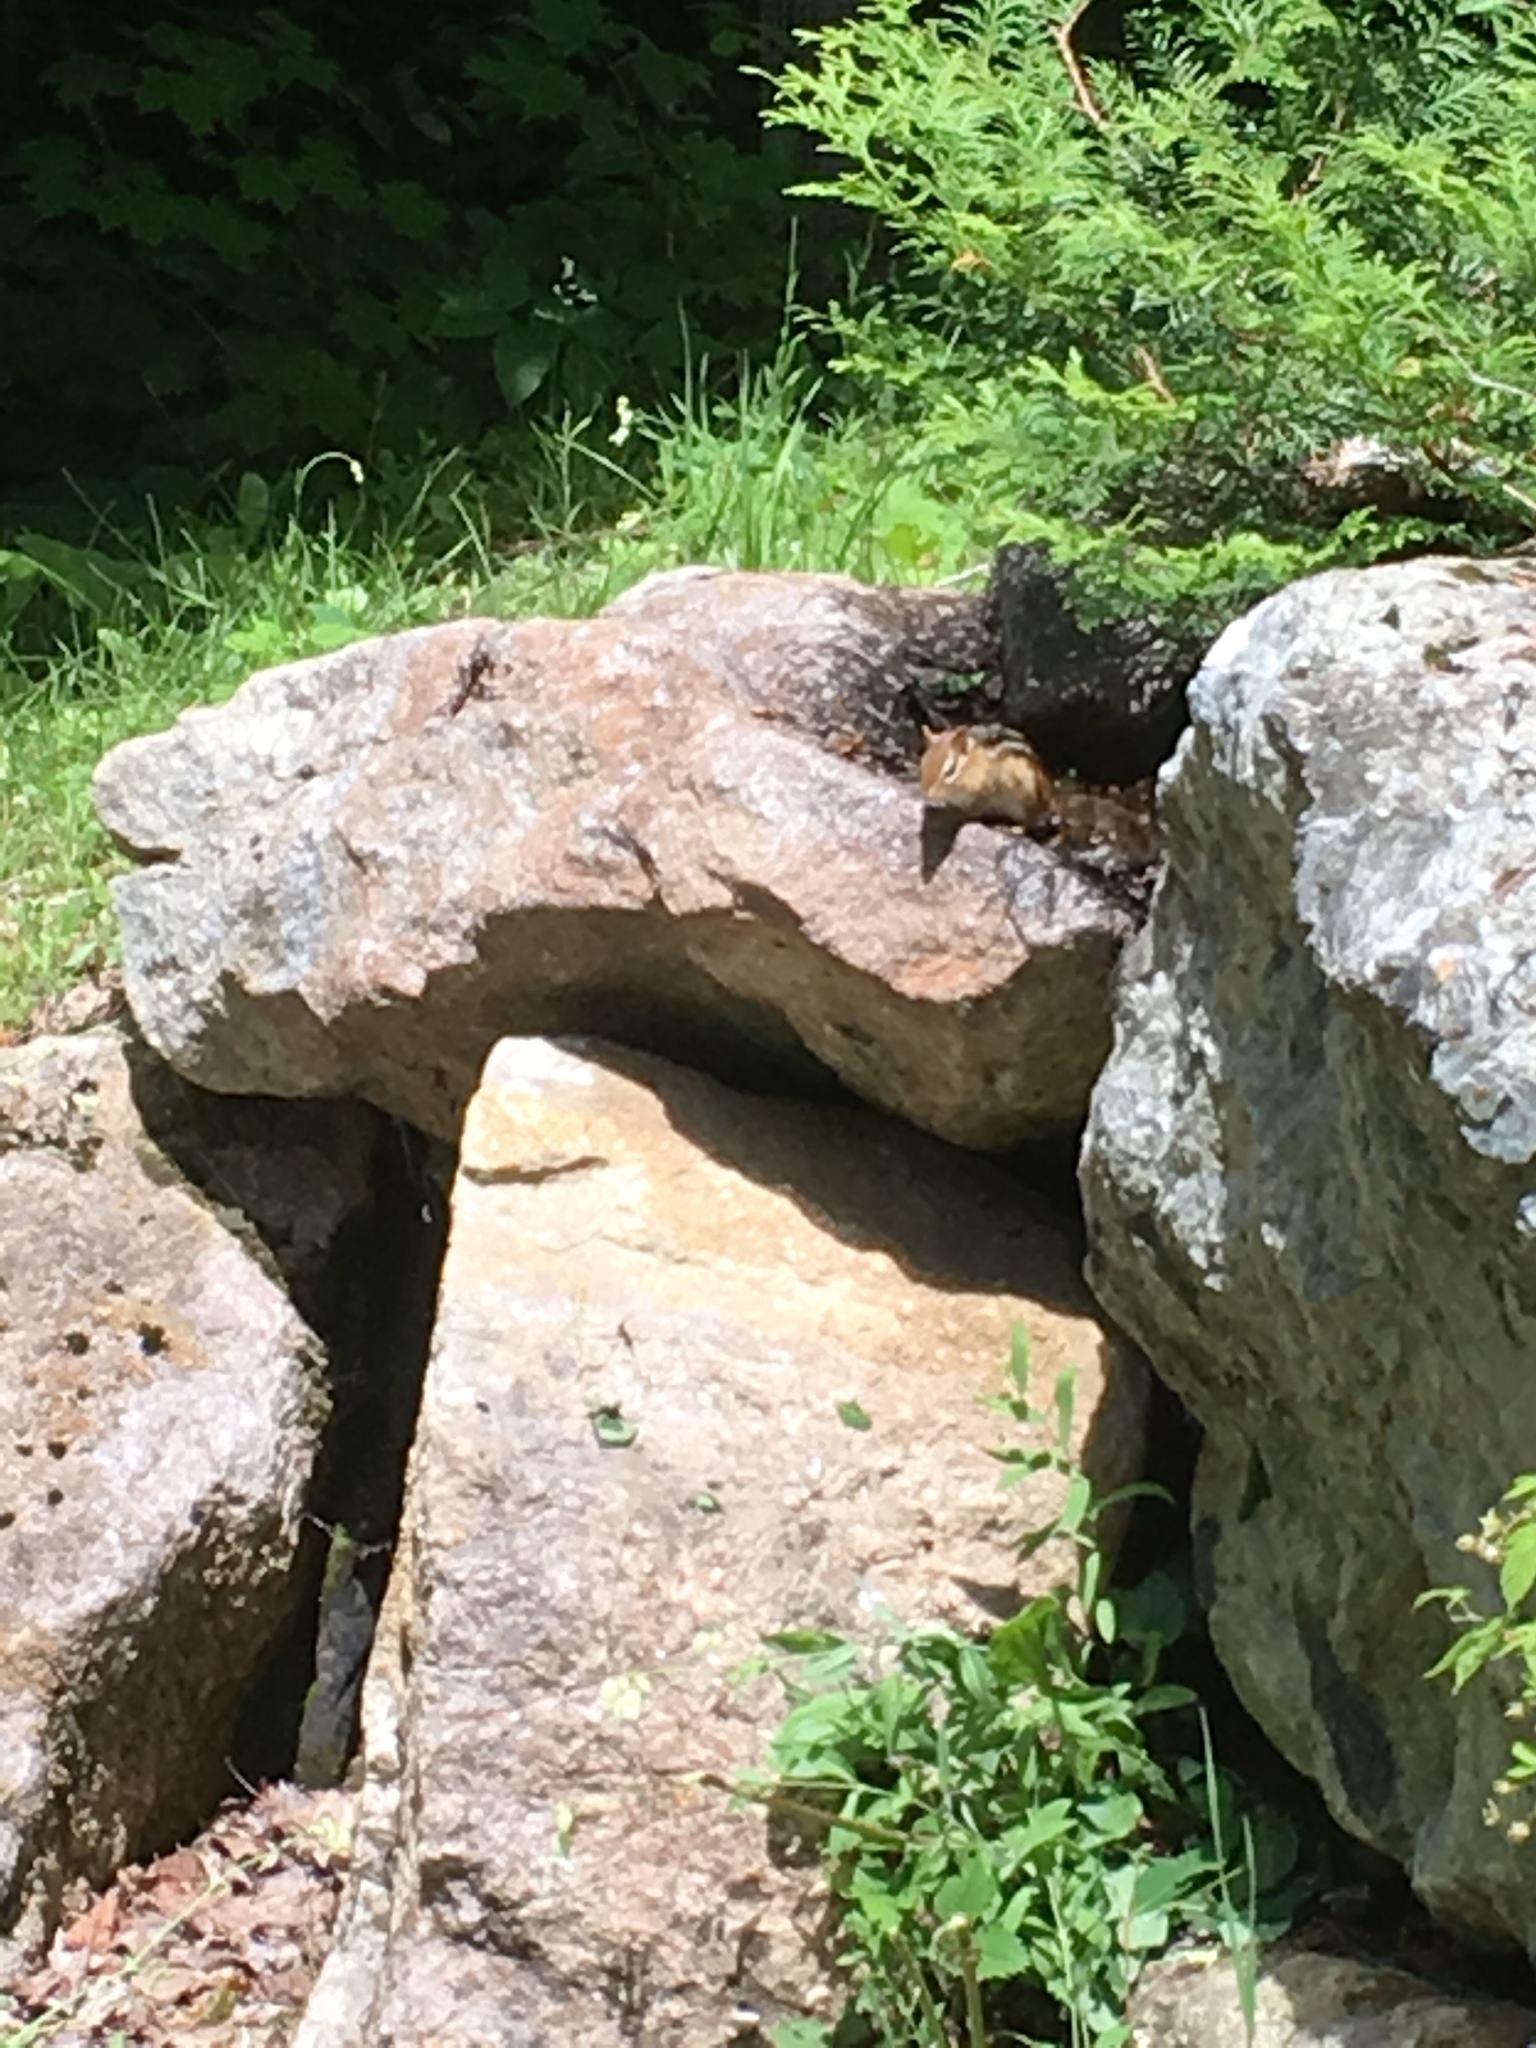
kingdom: Animalia
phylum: Chordata
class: Mammalia
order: Rodentia
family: Sciuridae
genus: Tamias
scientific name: Tamias striatus
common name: Eastern chipmunk
